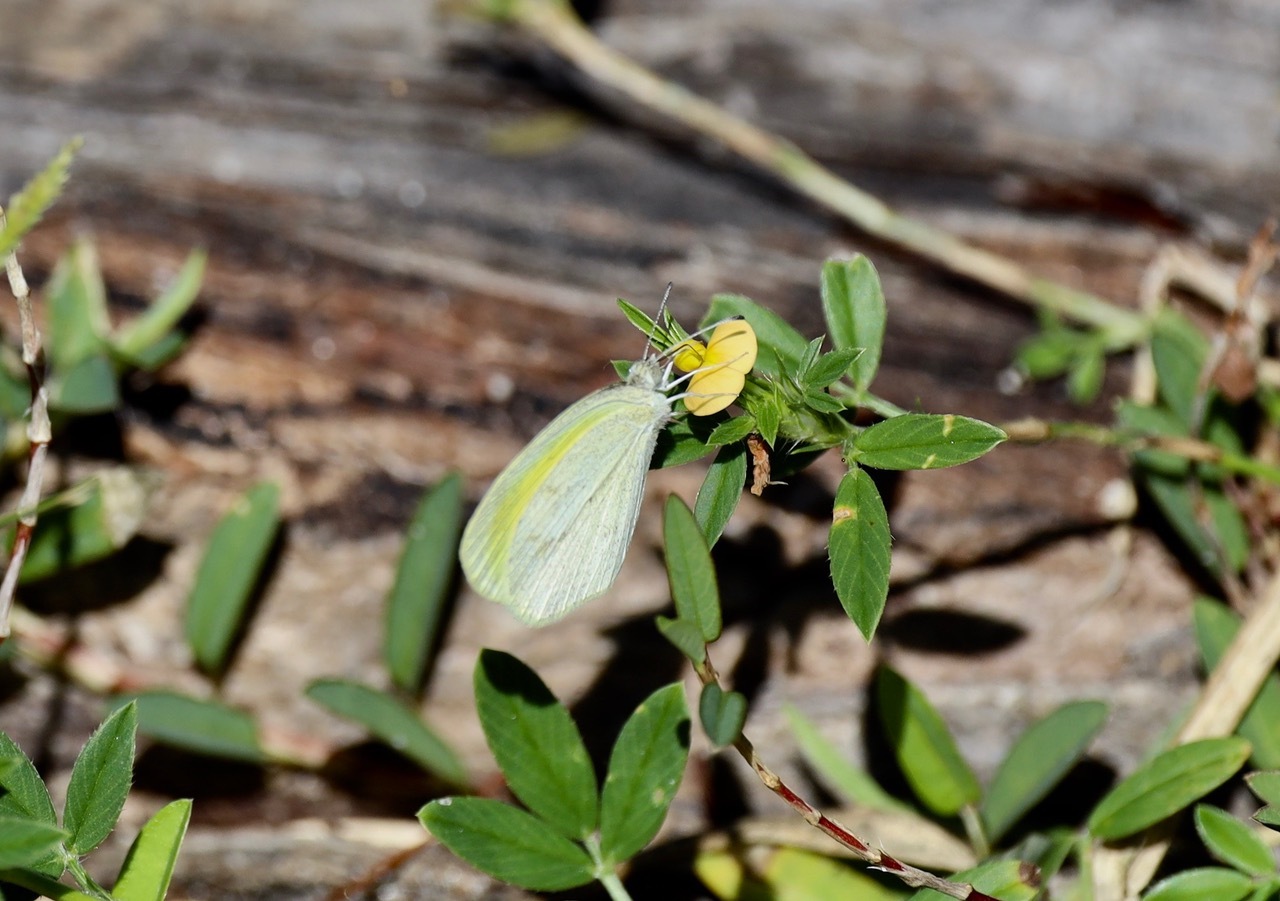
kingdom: Animalia
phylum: Arthropoda
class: Insecta
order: Lepidoptera
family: Pieridae
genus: Eurema
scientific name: Eurema daira
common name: Barred sulphur
